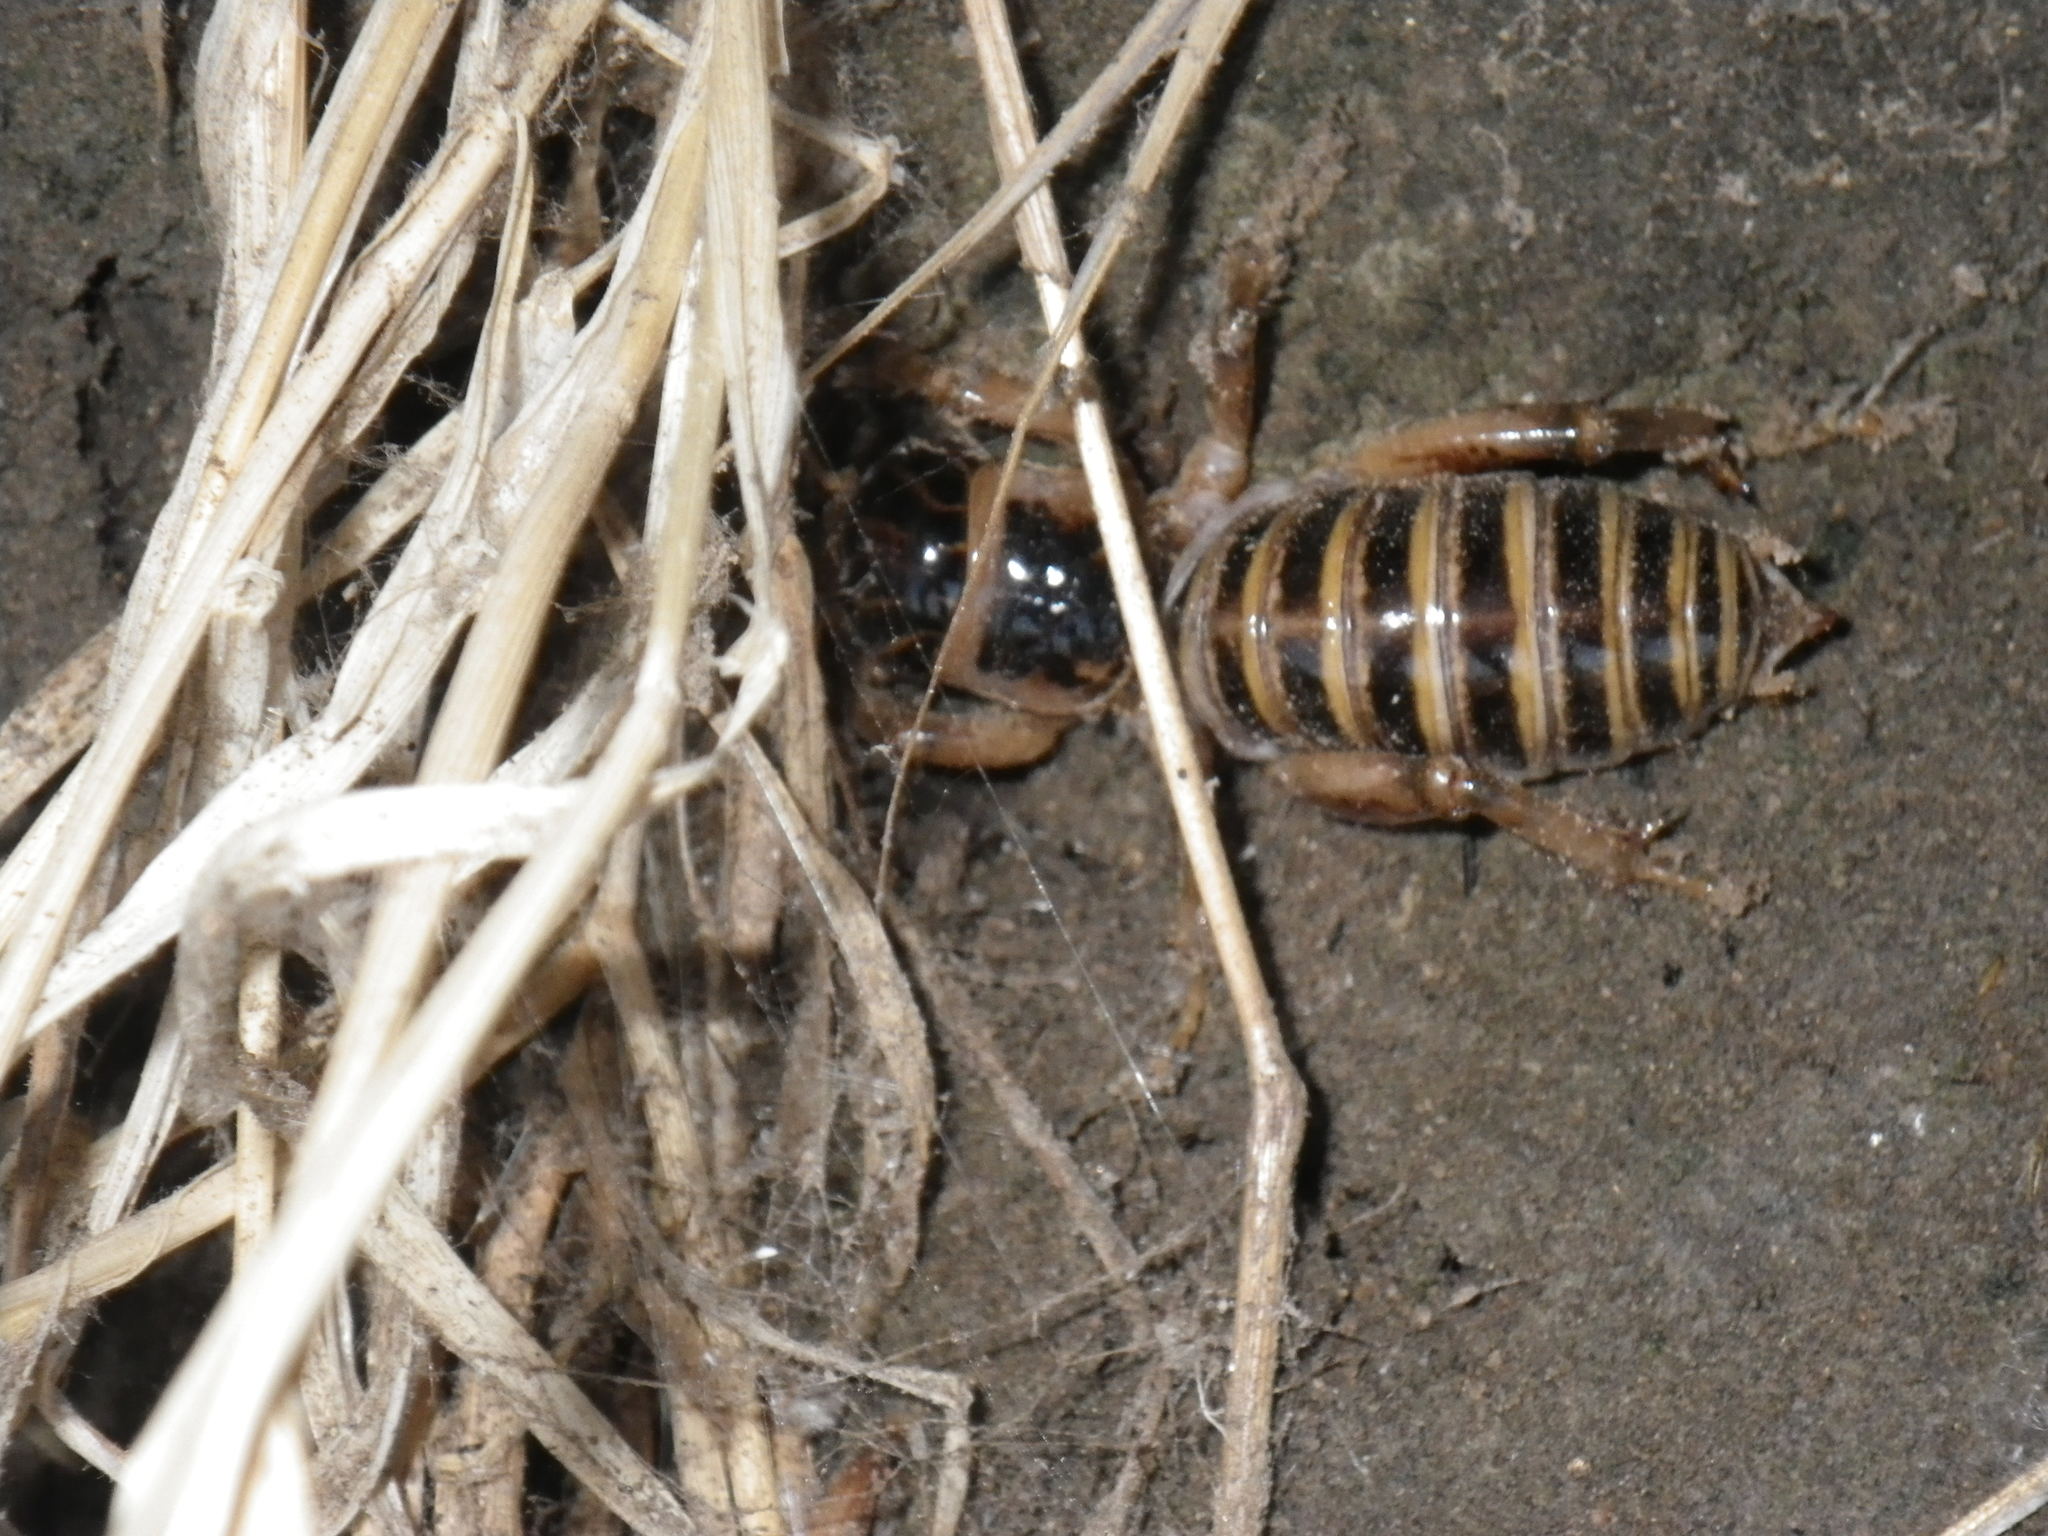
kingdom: Animalia
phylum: Arthropoda
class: Insecta
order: Orthoptera
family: Stenopelmatidae
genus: Ammopelmatus
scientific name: Ammopelmatus pictus
